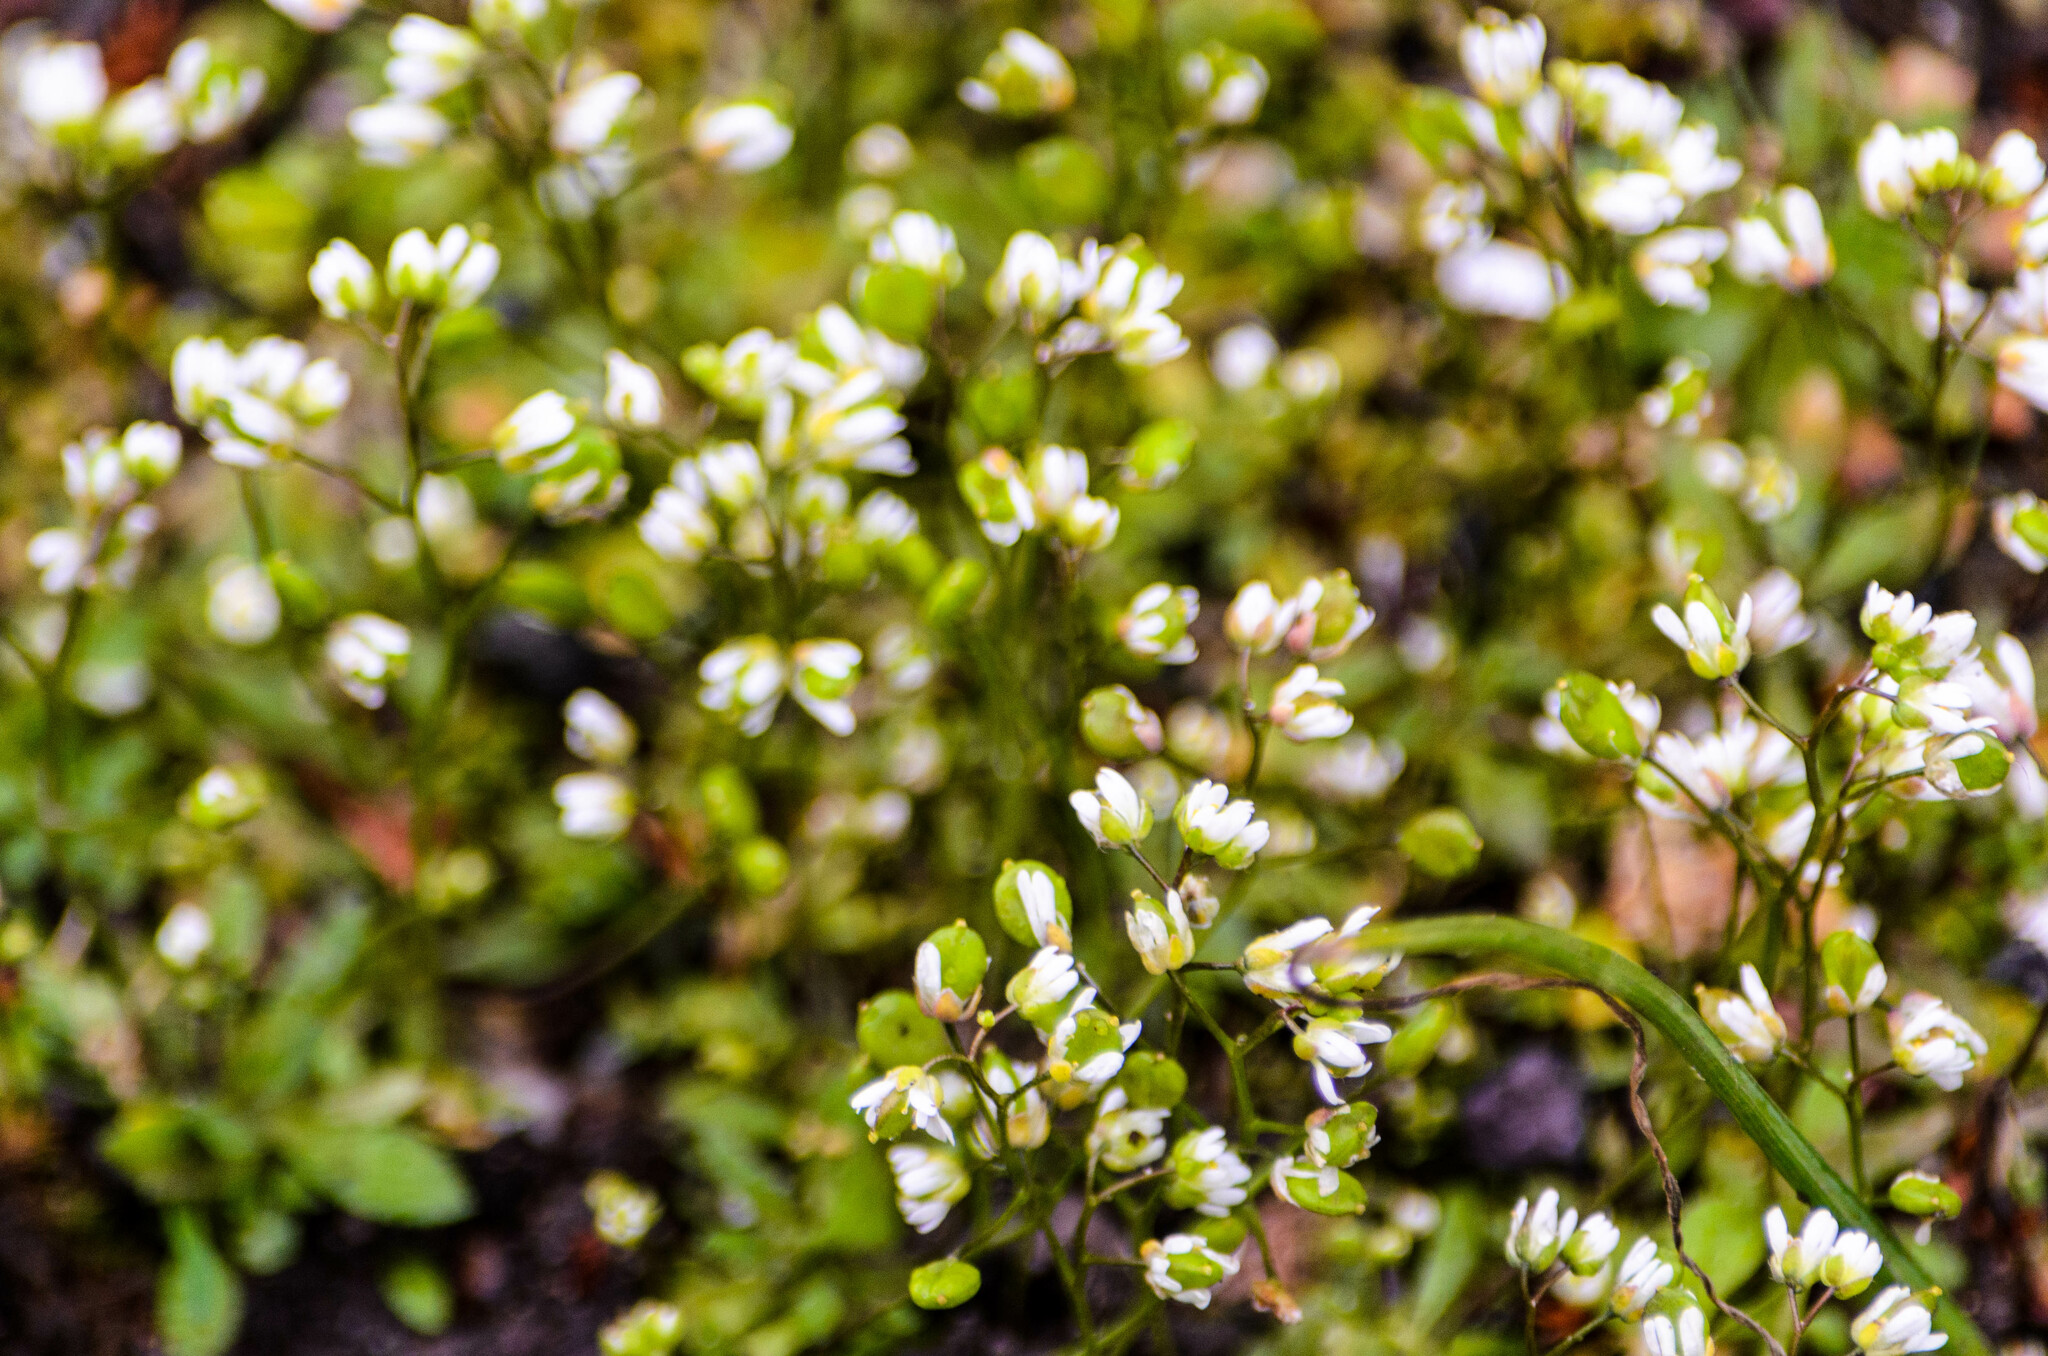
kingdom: Plantae
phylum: Tracheophyta
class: Magnoliopsida
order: Brassicales
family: Brassicaceae
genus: Cochlearia
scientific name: Cochlearia danica
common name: Early scurvygrass
